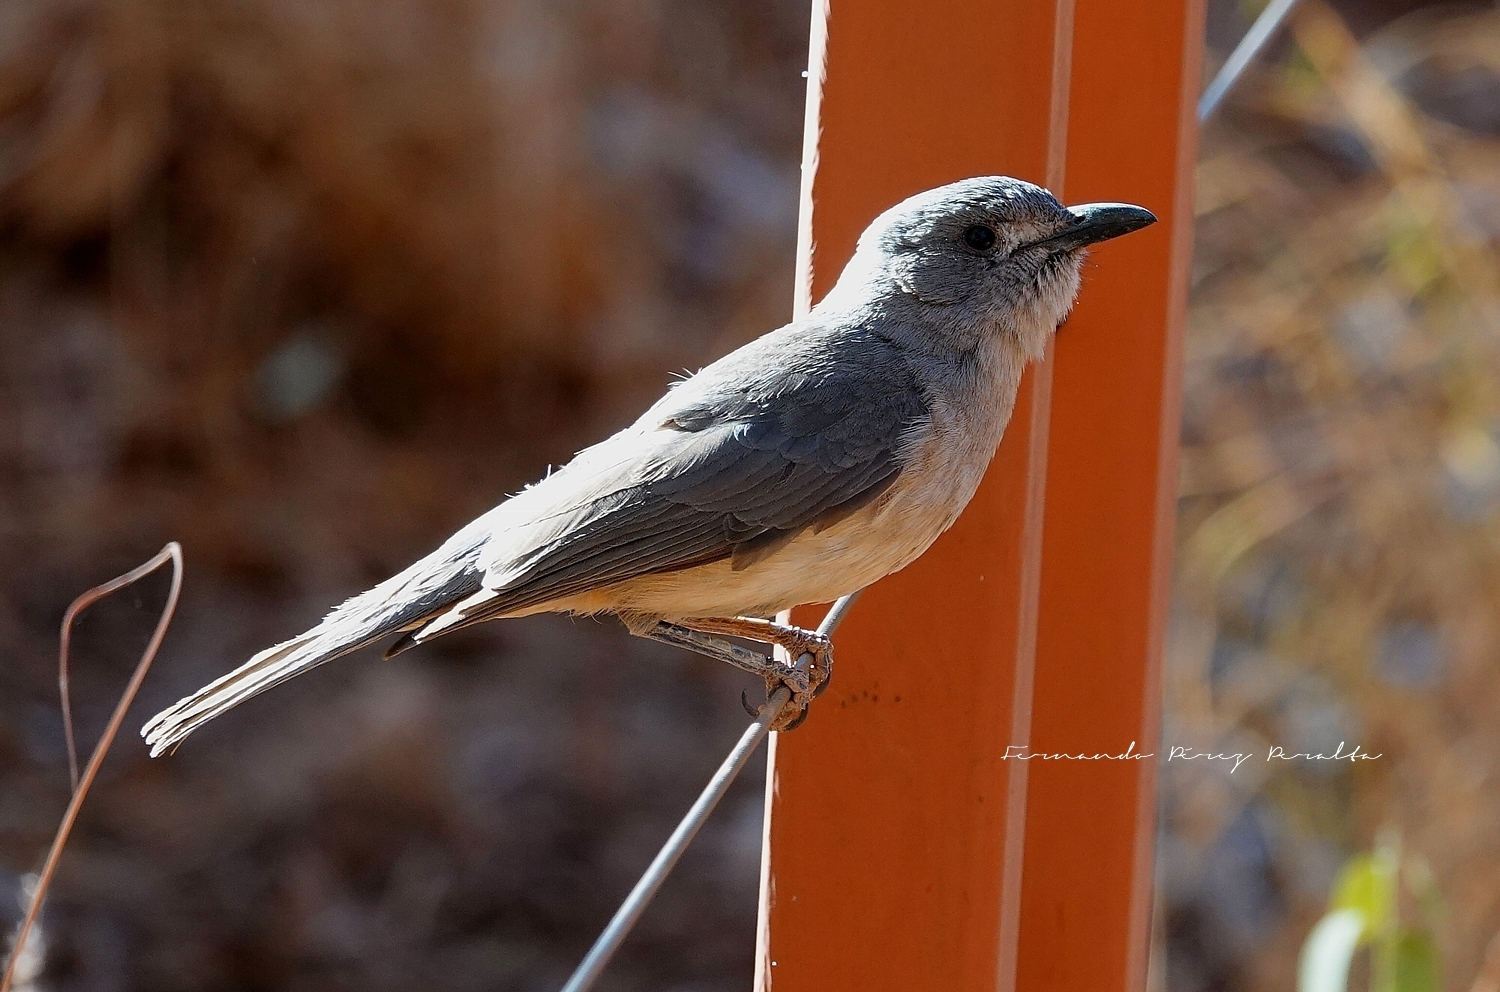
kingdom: Animalia
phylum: Chordata
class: Aves
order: Passeriformes
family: Pachycephalidae
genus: Colluricincla
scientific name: Colluricincla harmonica
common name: Grey shrikethrush
